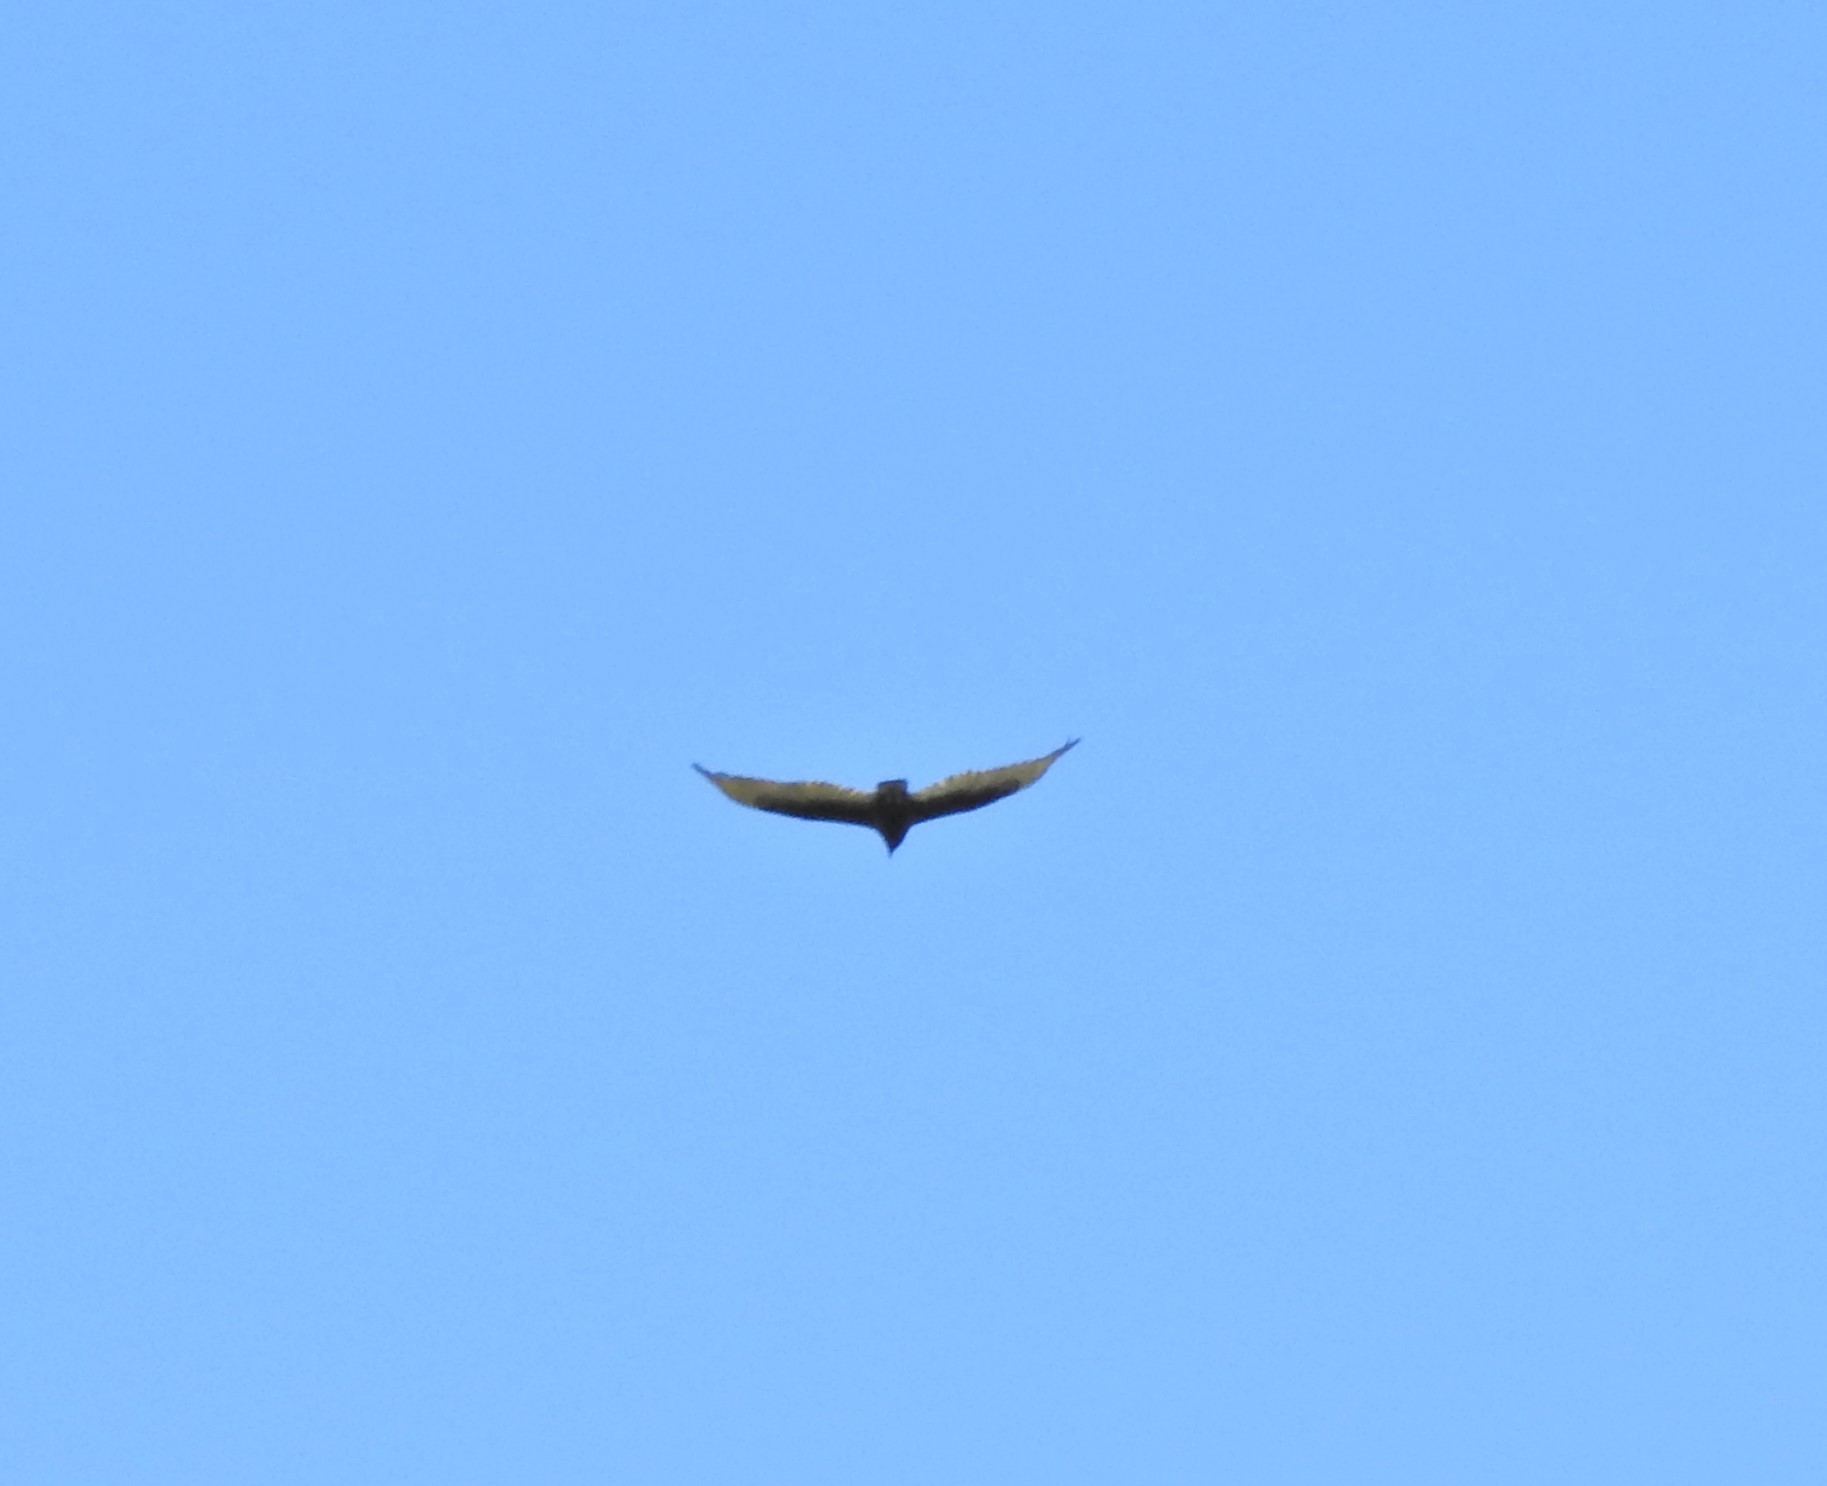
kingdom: Animalia
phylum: Chordata
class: Aves
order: Accipitriformes
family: Cathartidae
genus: Cathartes
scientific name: Cathartes aura
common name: Turkey vulture
